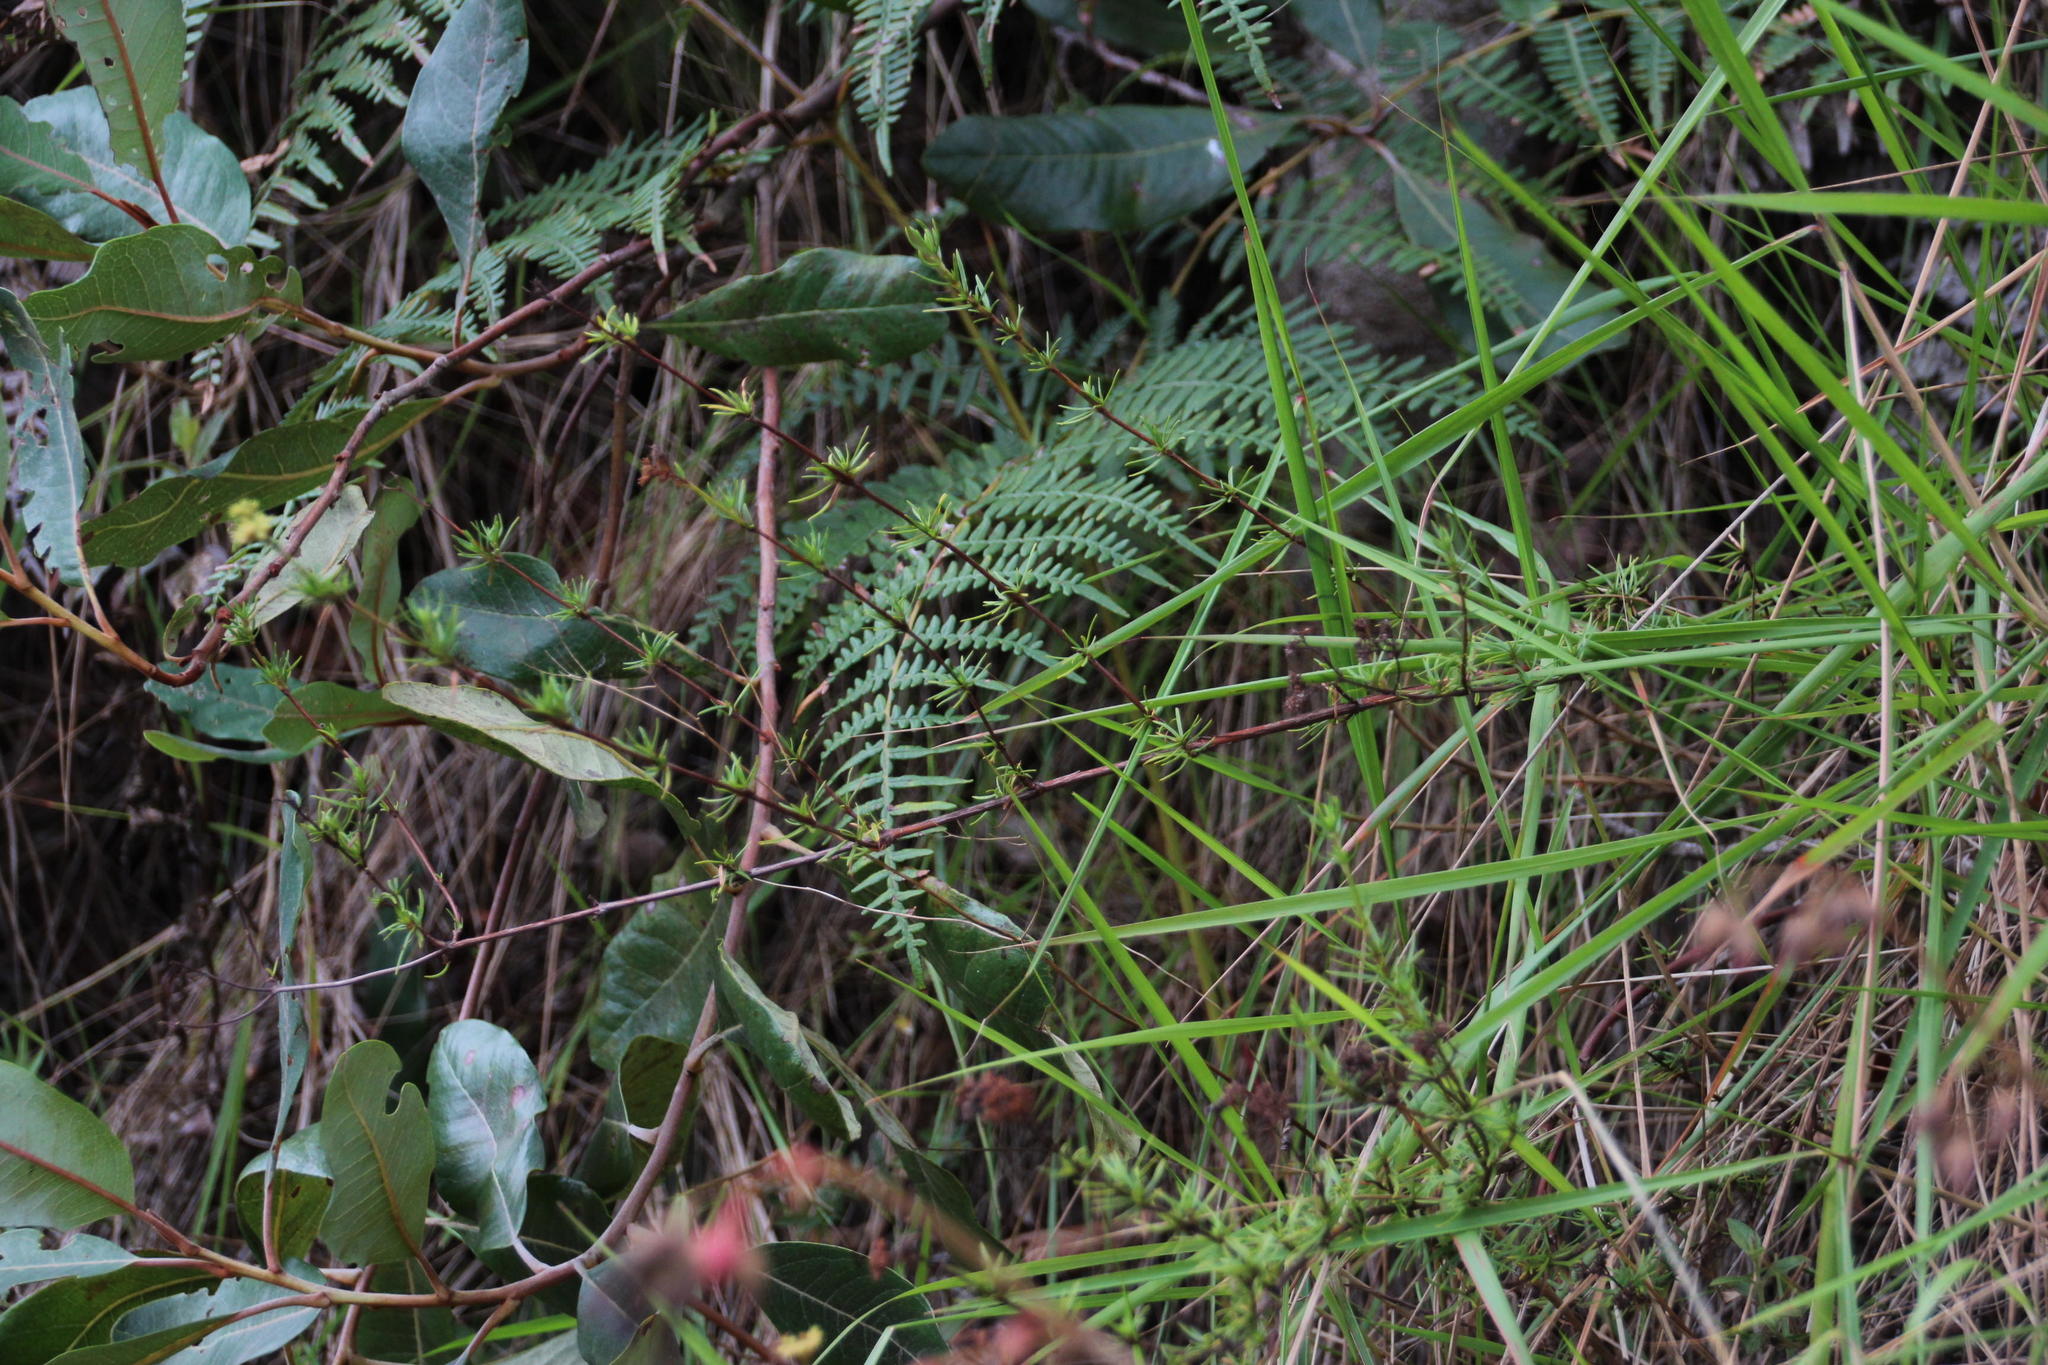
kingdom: Plantae
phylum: Tracheophyta
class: Magnoliopsida
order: Gentianales
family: Rubiaceae
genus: Galianthe
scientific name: Galianthe peruviana
